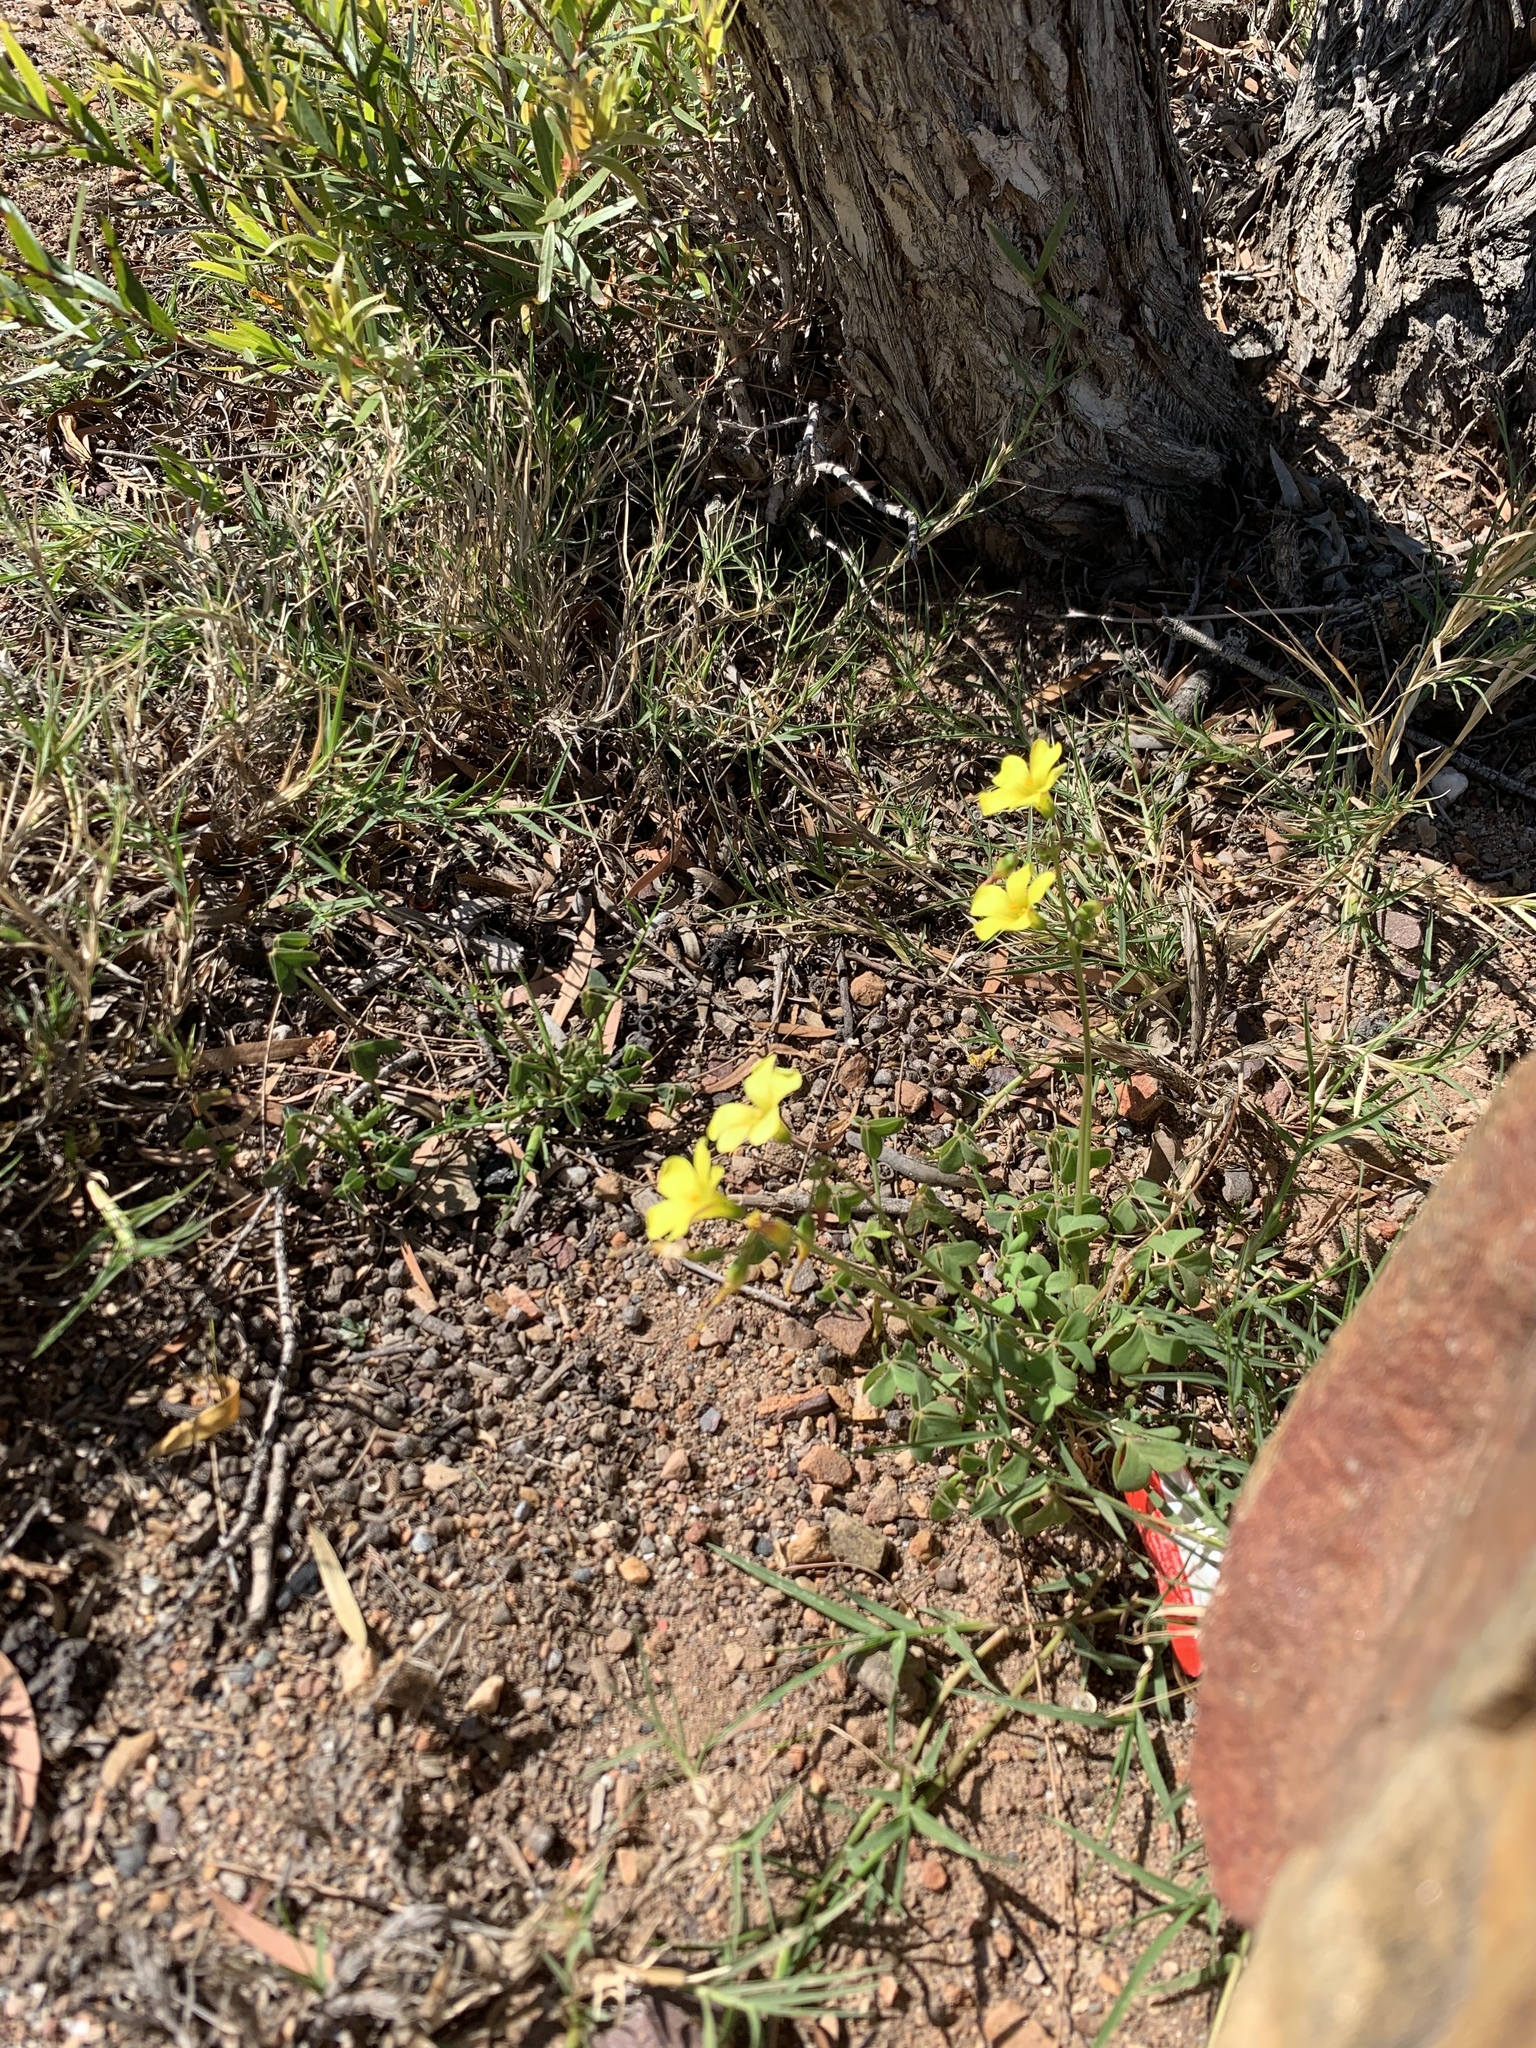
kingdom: Plantae
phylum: Tracheophyta
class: Magnoliopsida
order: Oxalidales
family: Oxalidaceae
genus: Oxalis
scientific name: Oxalis pes-caprae
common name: Bermuda-buttercup
